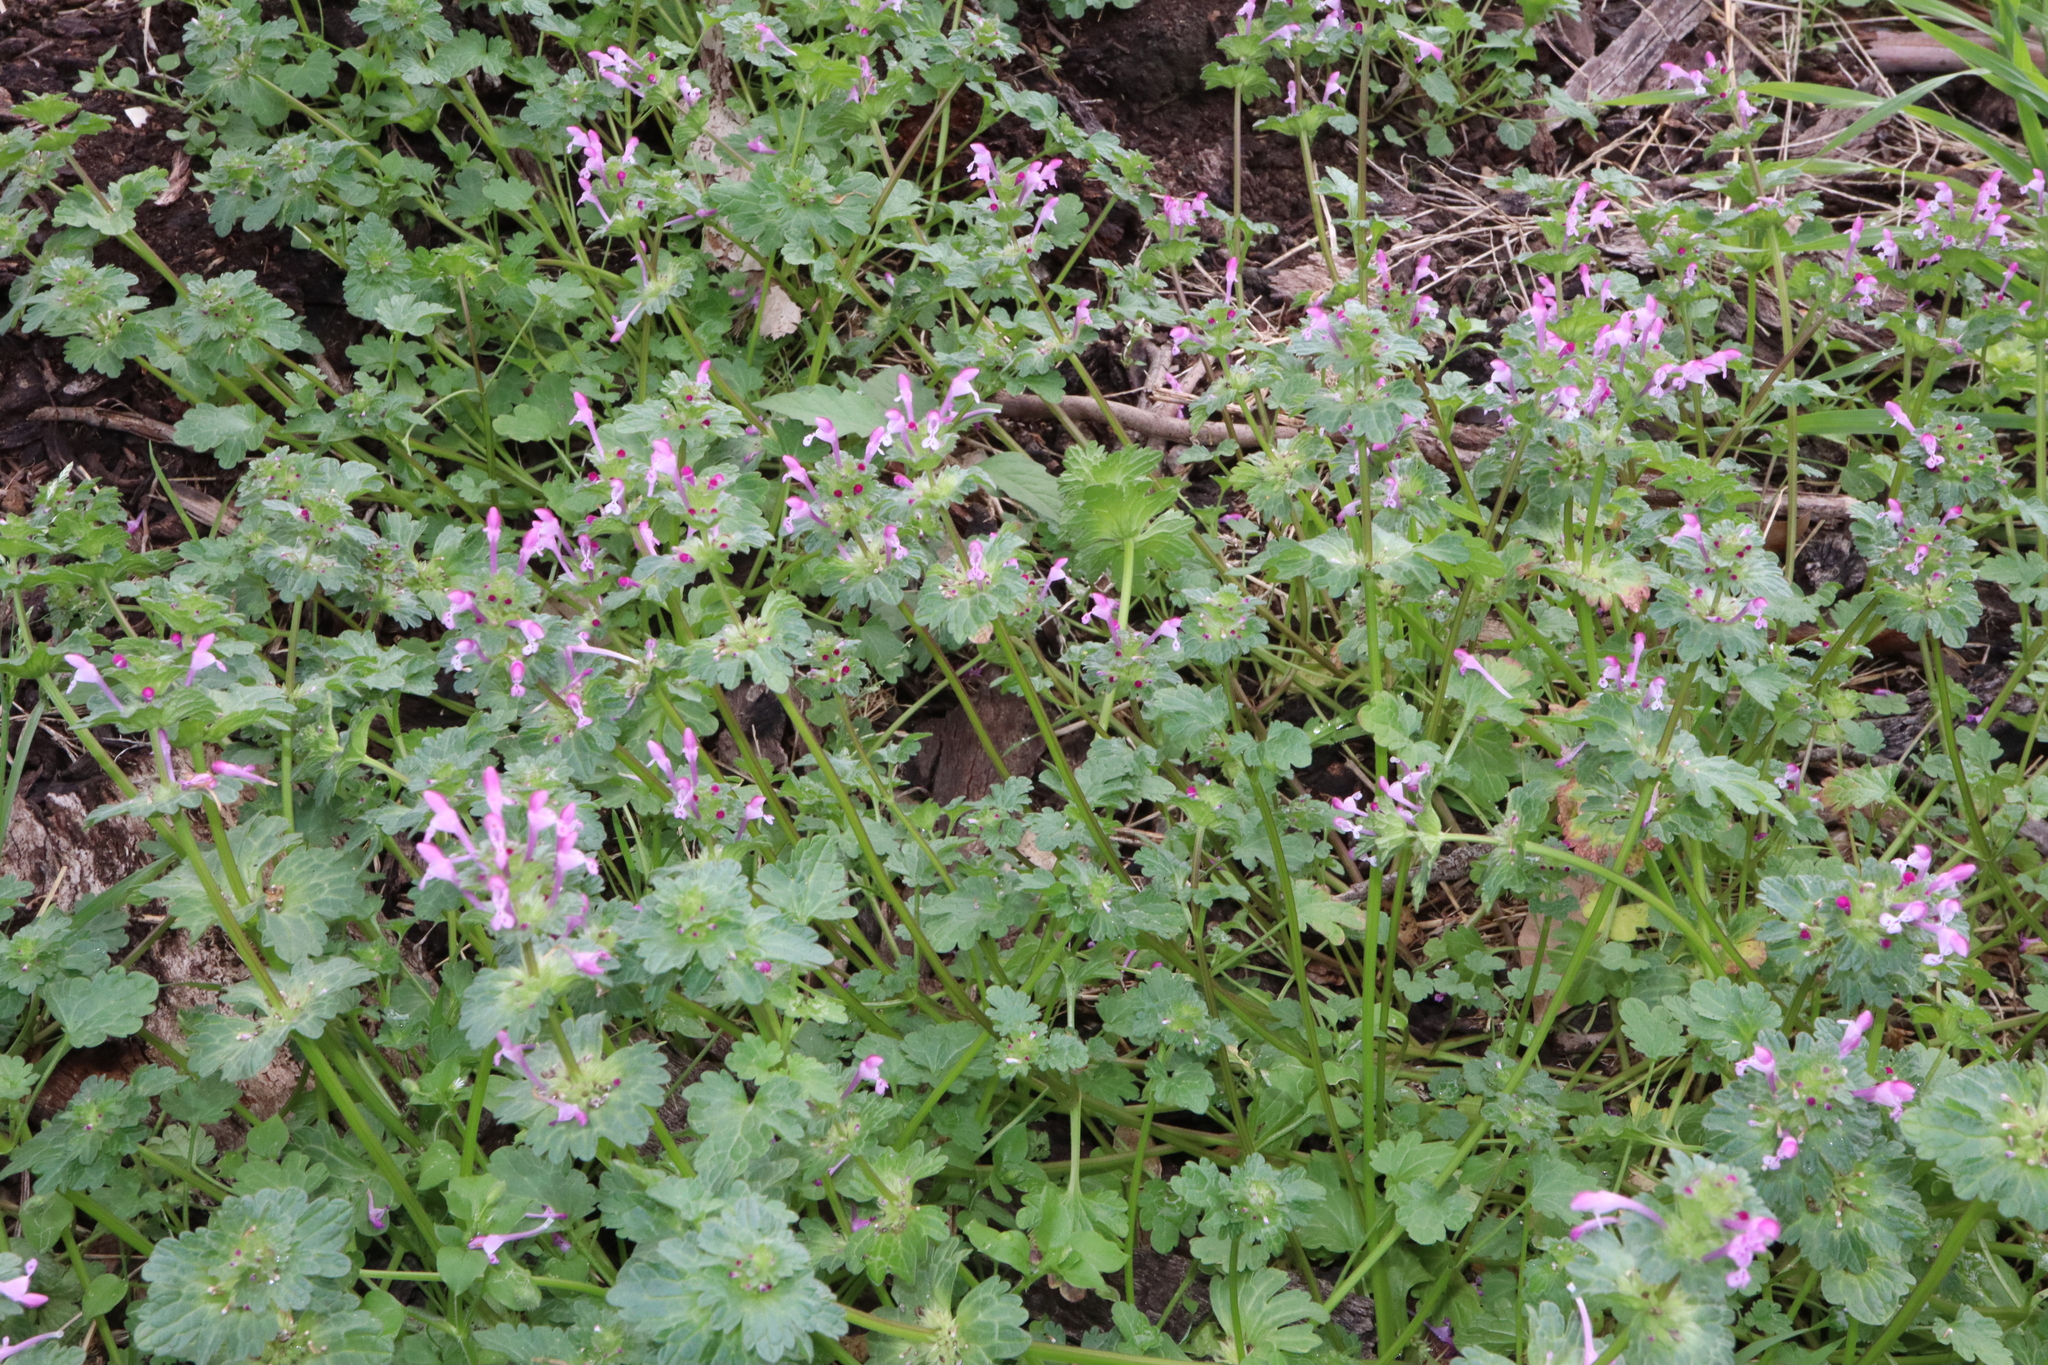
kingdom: Plantae
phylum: Tracheophyta
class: Magnoliopsida
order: Lamiales
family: Lamiaceae
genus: Lamium
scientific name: Lamium amplexicaule
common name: Henbit dead-nettle
